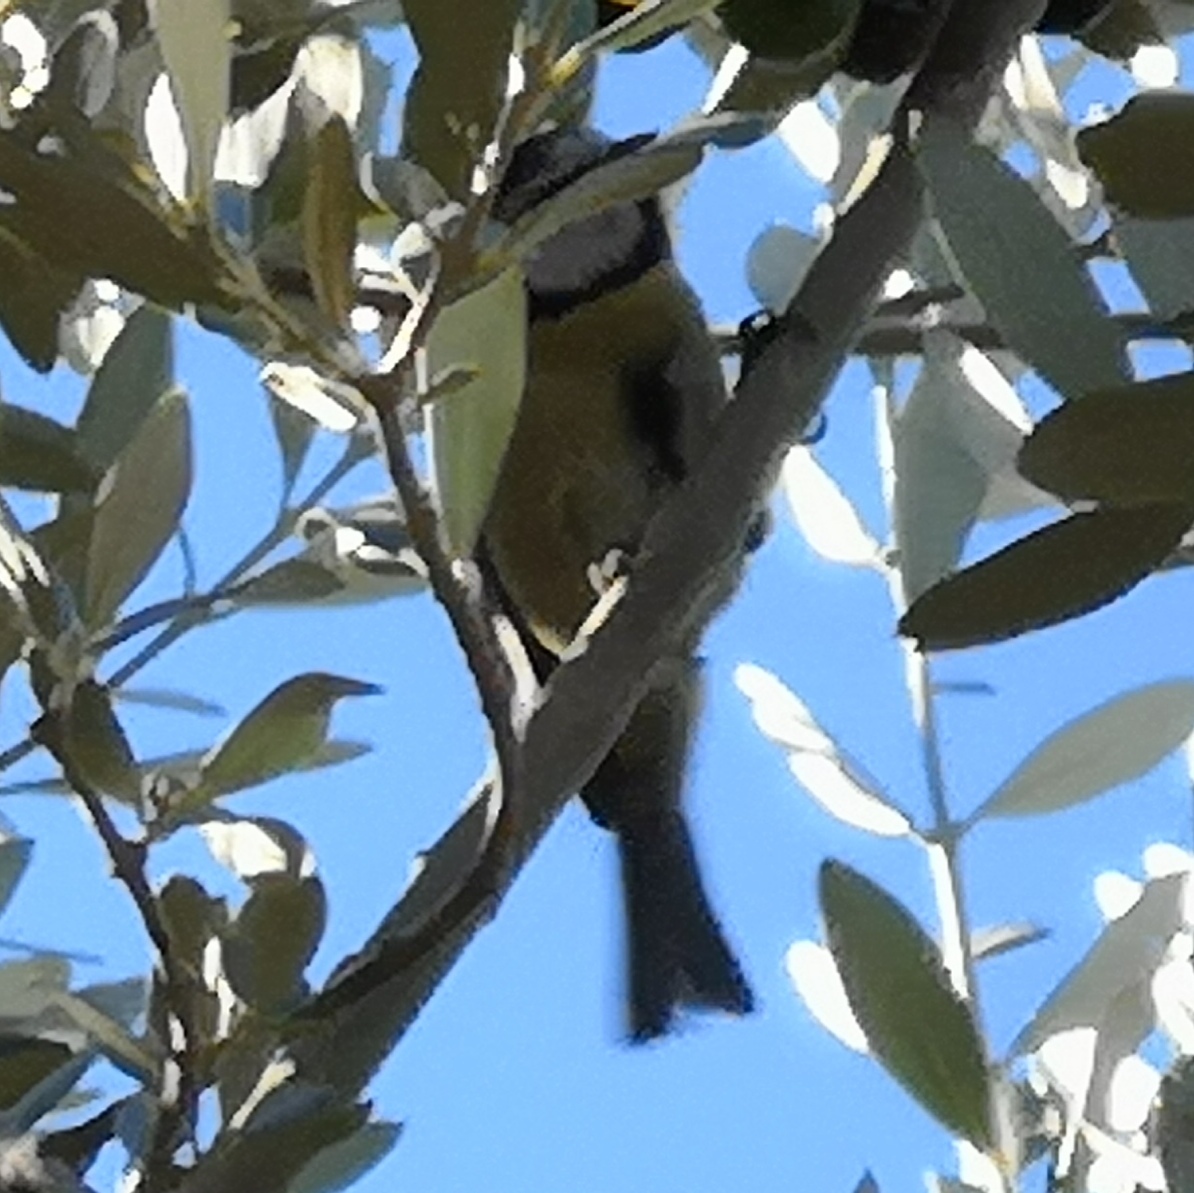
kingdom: Animalia
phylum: Chordata
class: Aves
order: Passeriformes
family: Paridae
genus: Cyanistes
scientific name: Cyanistes caeruleus
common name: Eurasian blue tit
